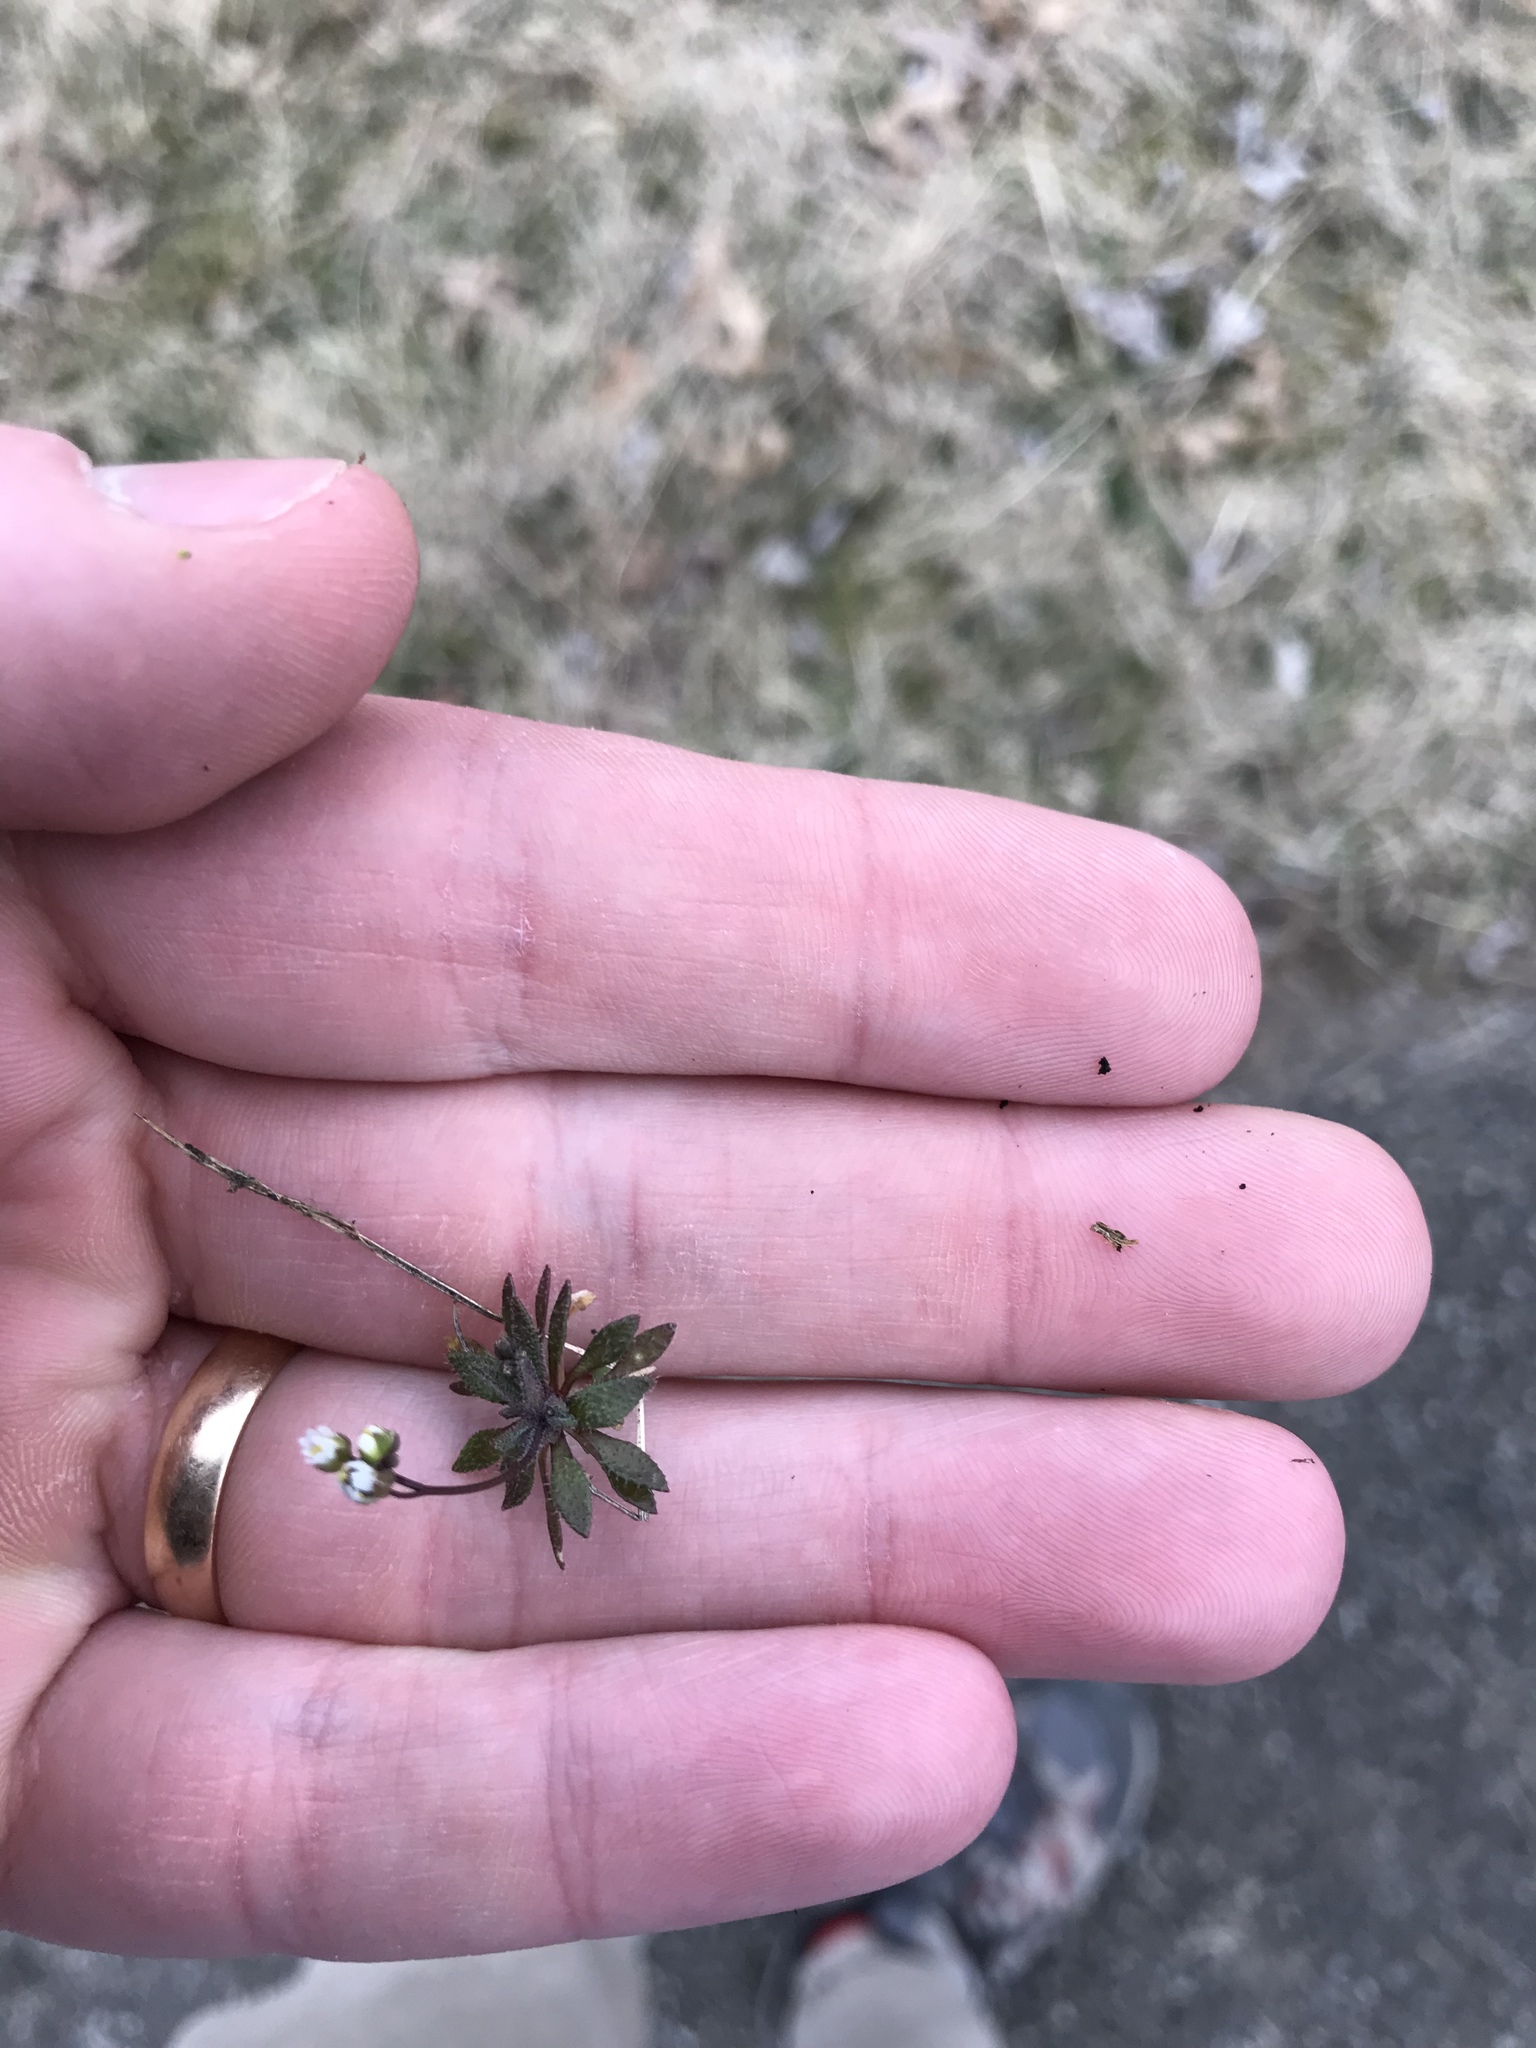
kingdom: Plantae
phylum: Tracheophyta
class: Magnoliopsida
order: Brassicales
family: Brassicaceae
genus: Draba
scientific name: Draba verna
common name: Spring draba
